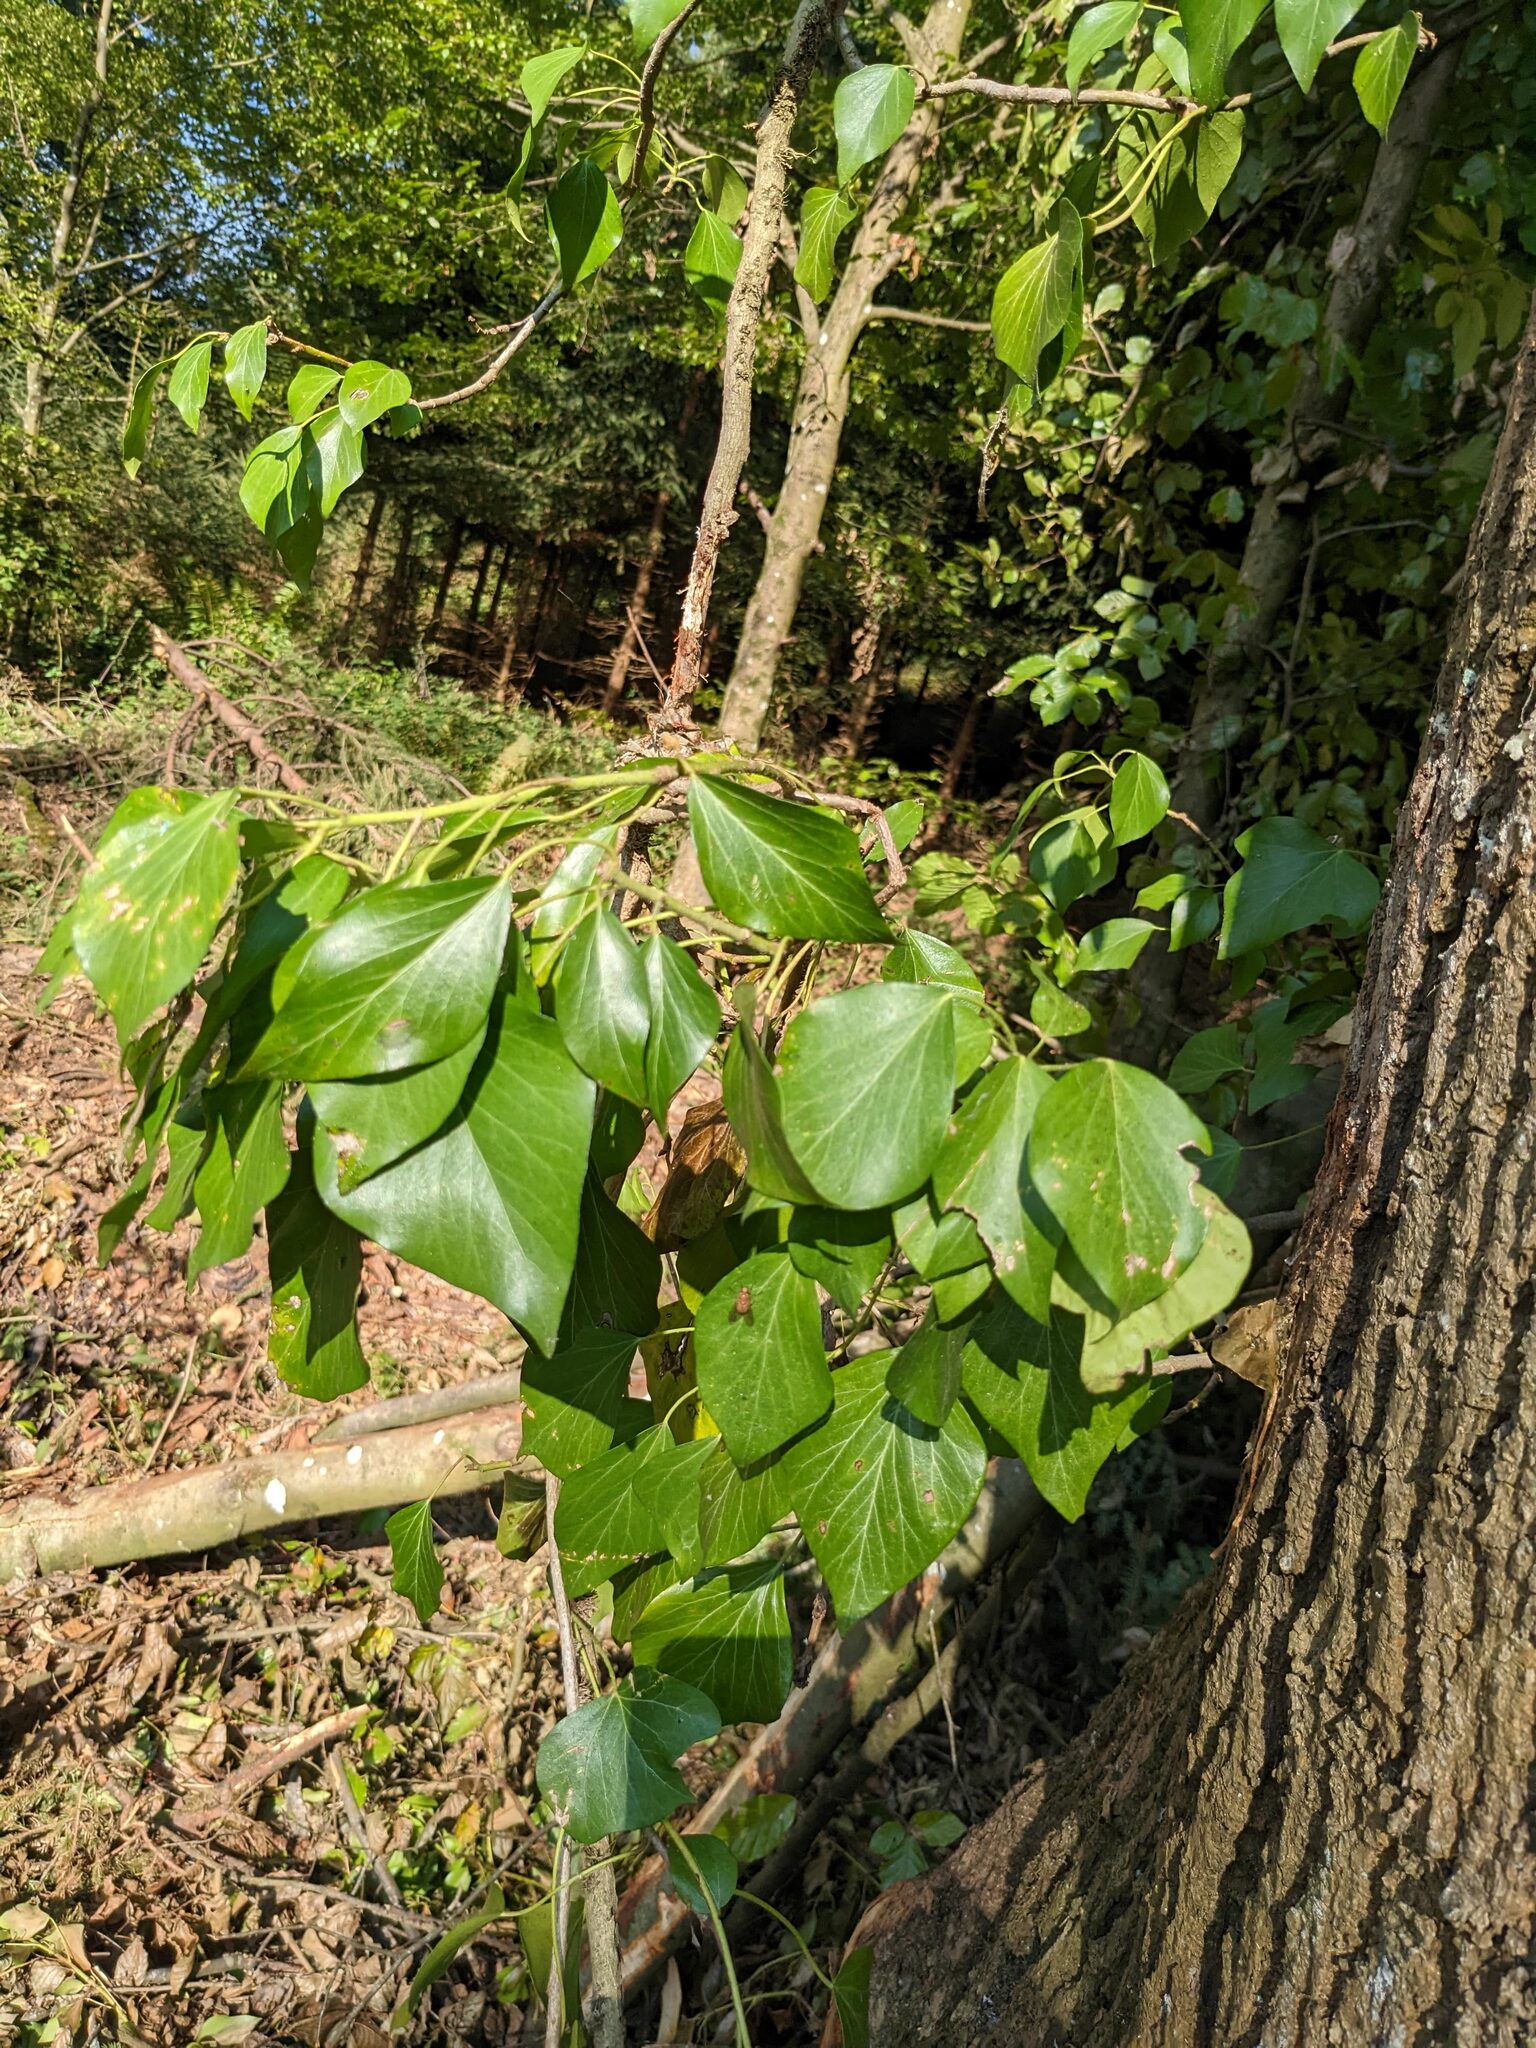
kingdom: Plantae
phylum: Tracheophyta
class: Magnoliopsida
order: Apiales
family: Araliaceae
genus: Hedera
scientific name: Hedera helix
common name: Ivy
